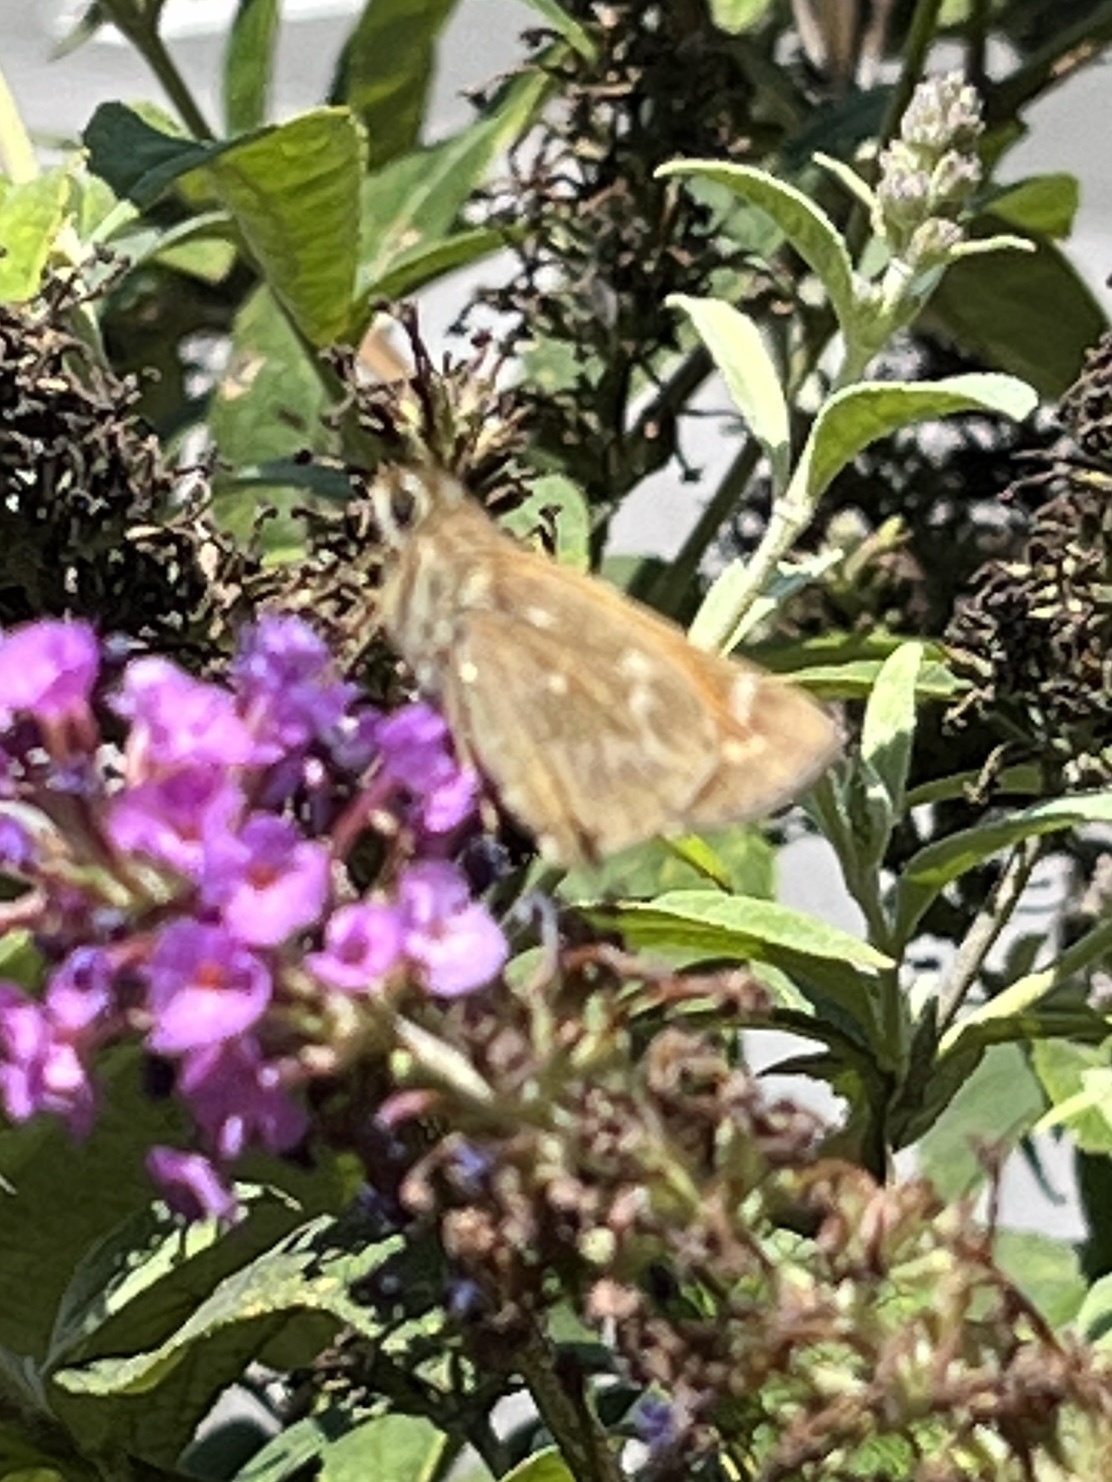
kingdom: Animalia
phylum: Arthropoda
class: Insecta
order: Lepidoptera
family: Hesperiidae
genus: Atalopedes
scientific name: Atalopedes
